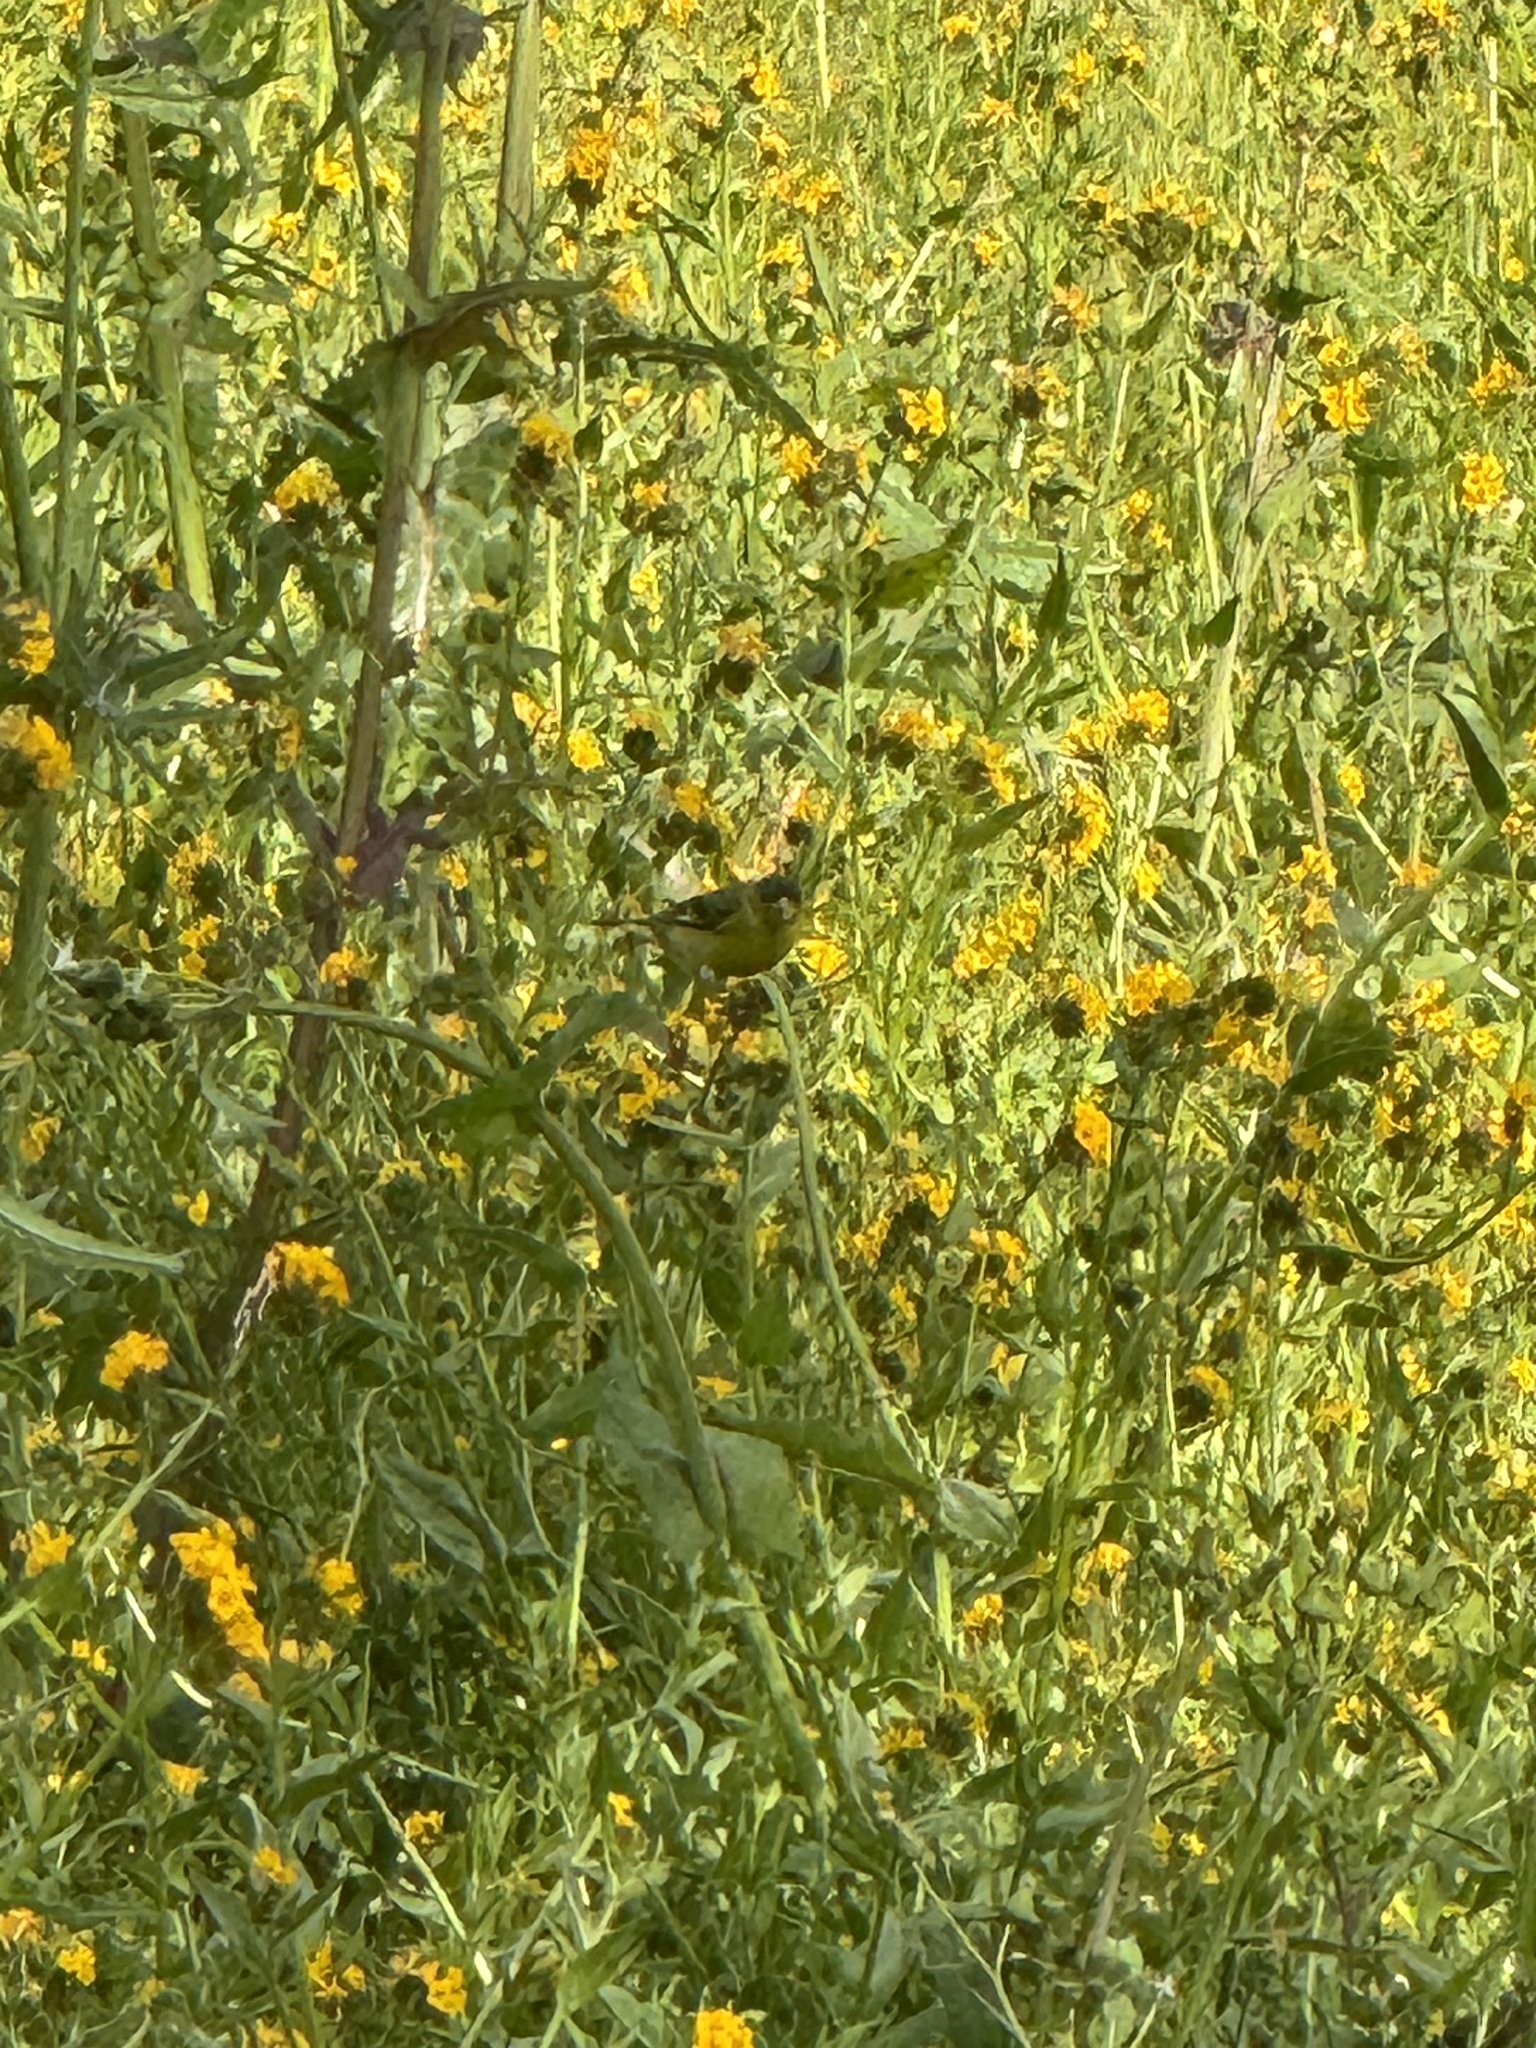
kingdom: Animalia
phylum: Chordata
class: Aves
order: Passeriformes
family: Fringillidae
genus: Spinus
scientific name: Spinus psaltria
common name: Lesser goldfinch
